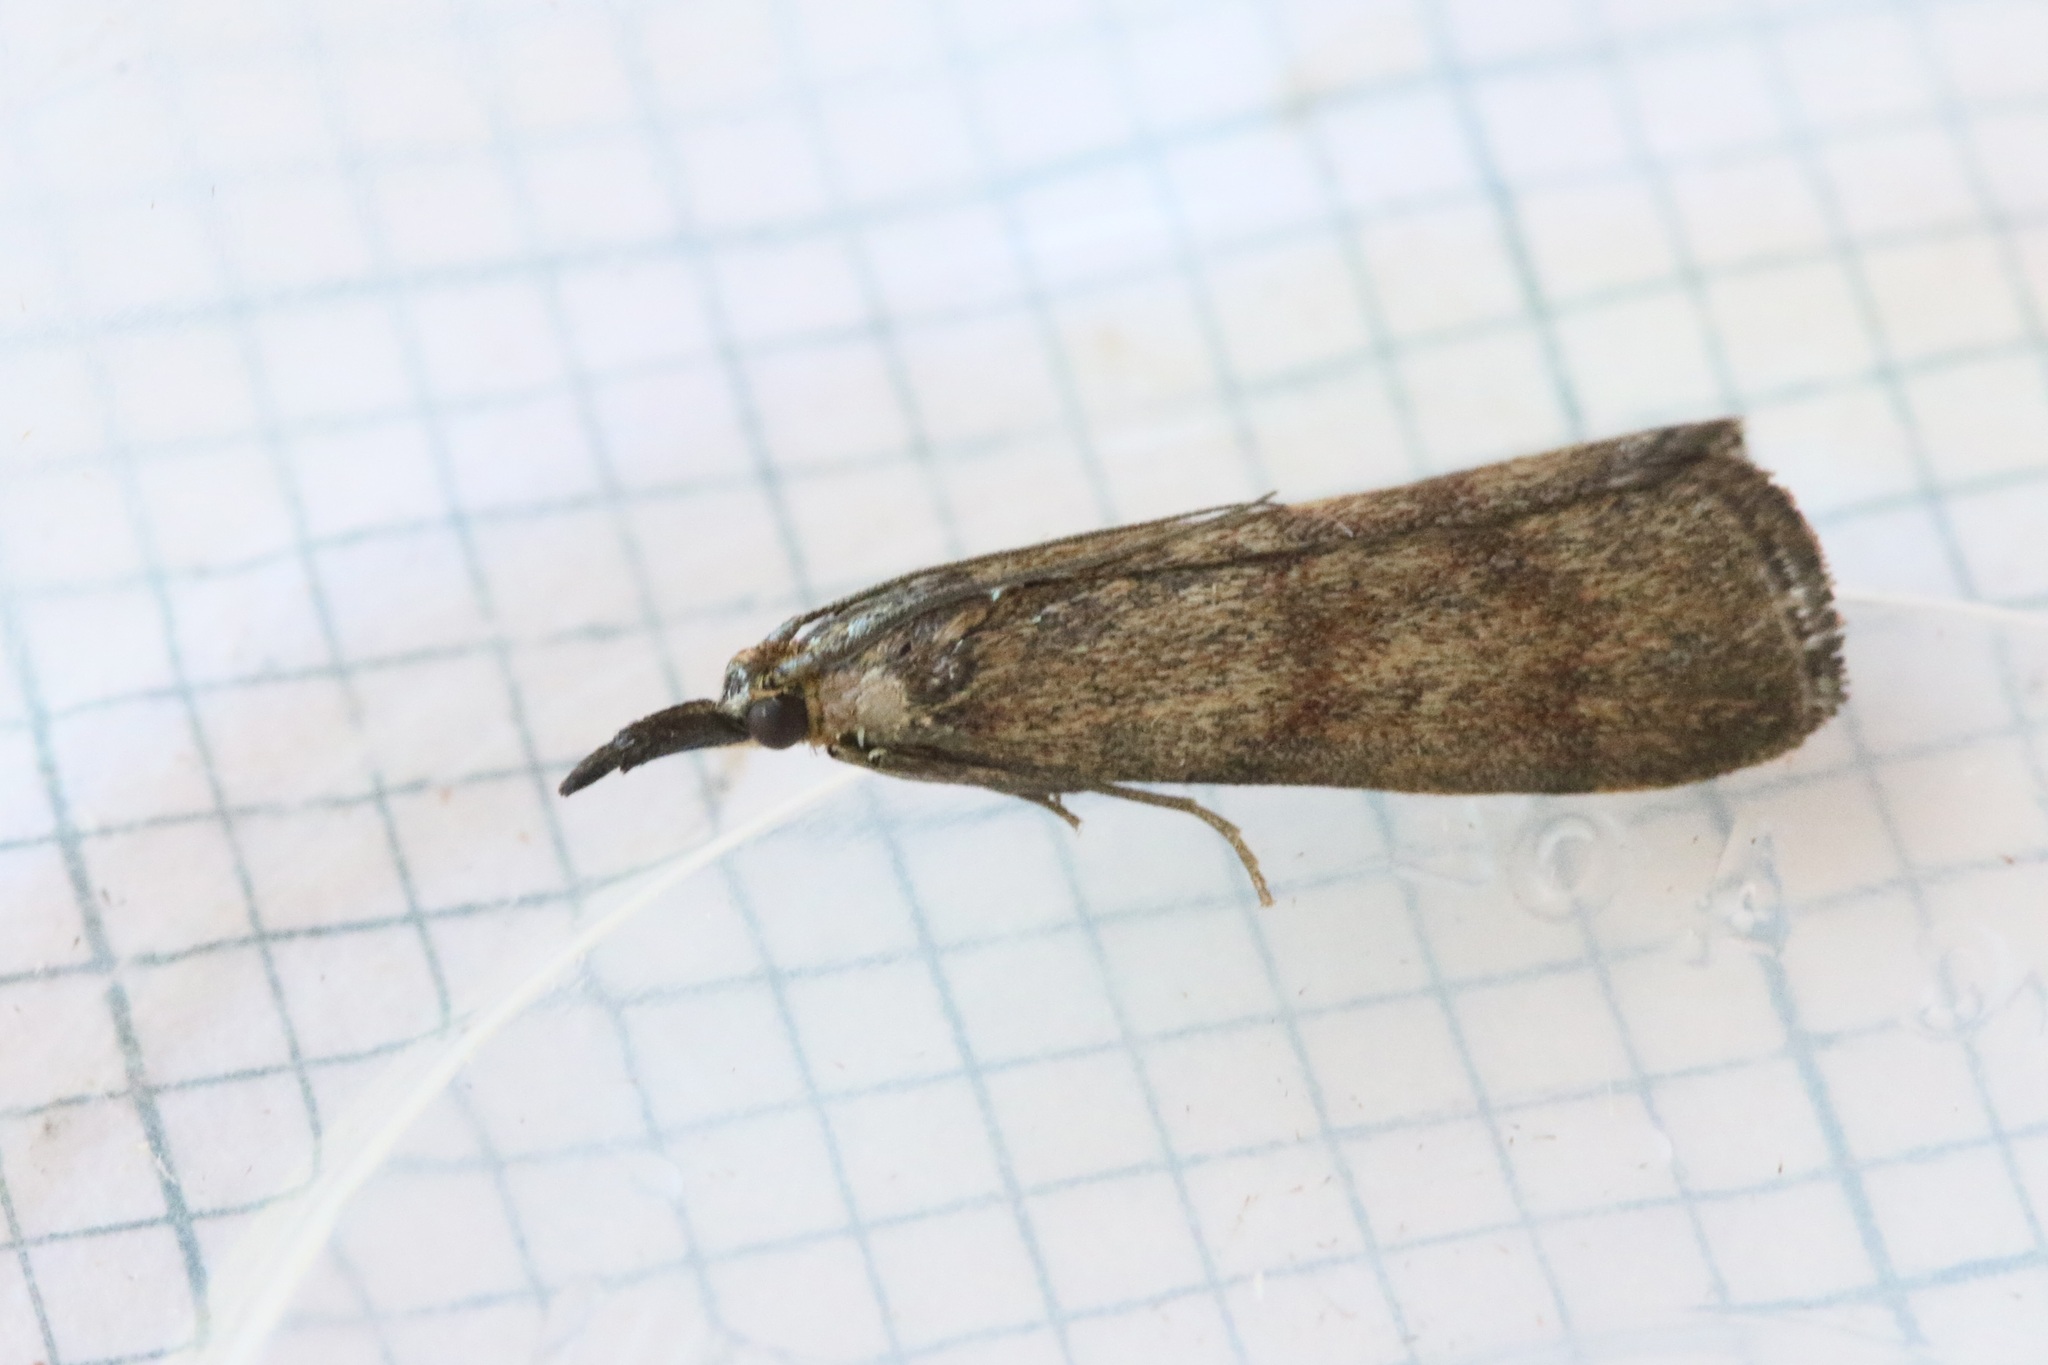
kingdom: Animalia
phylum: Arthropoda
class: Insecta
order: Lepidoptera
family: Pyralidae
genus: Hypochalcia
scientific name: Hypochalcia ahenella
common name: Dingy knot-horn
